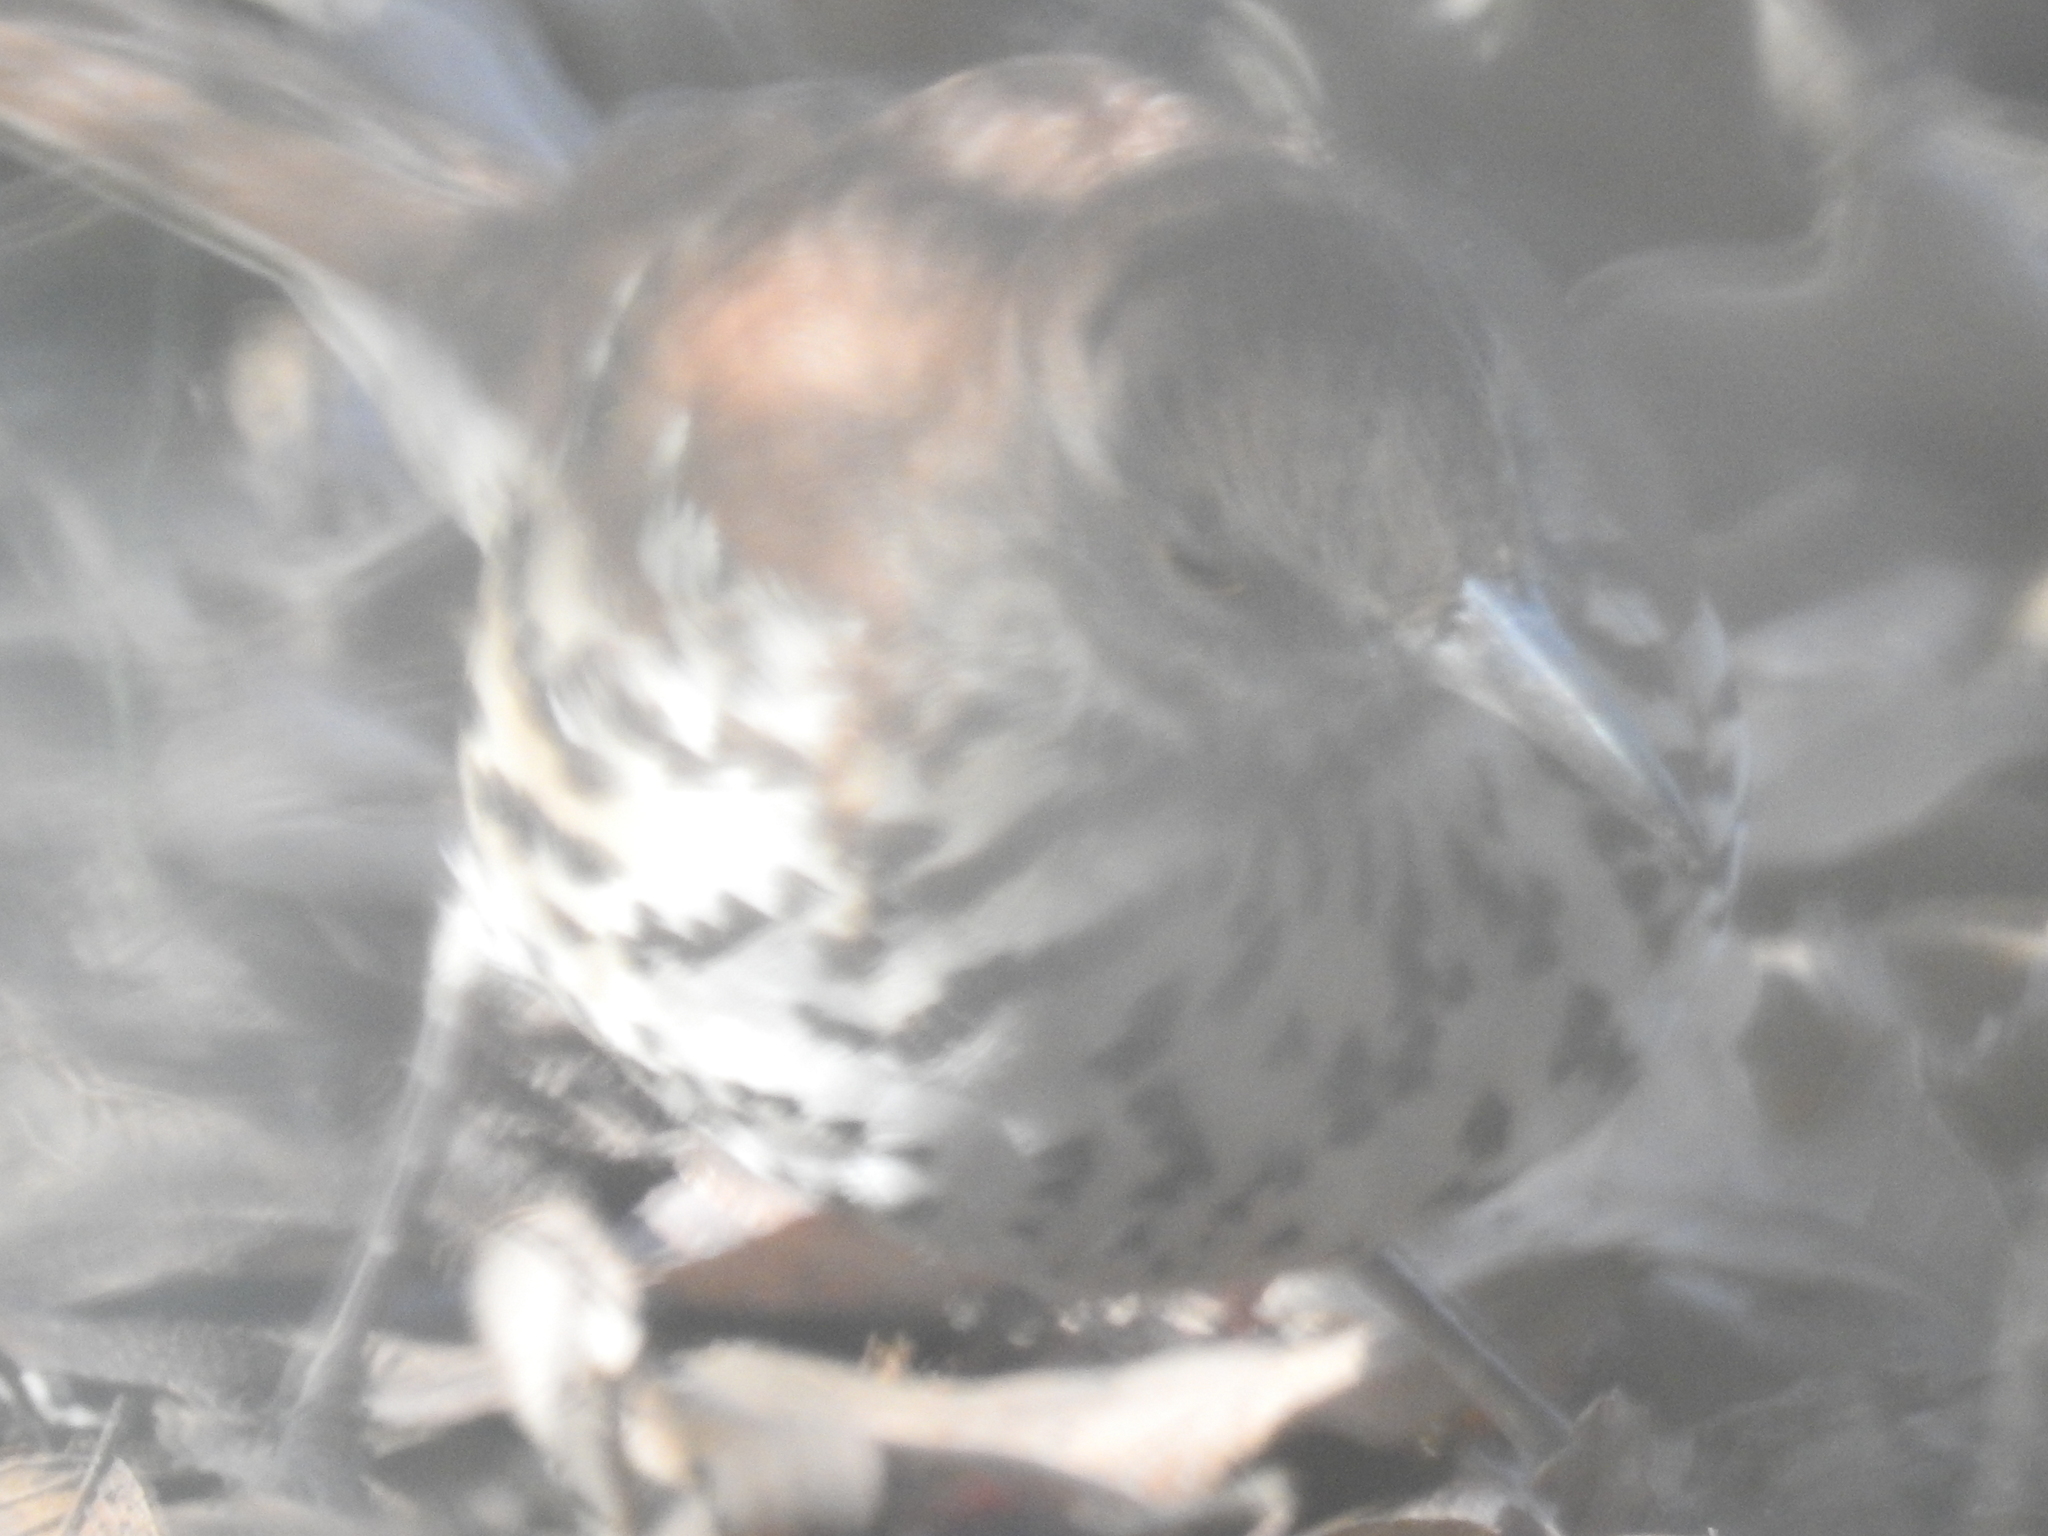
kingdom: Animalia
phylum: Chordata
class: Aves
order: Passeriformes
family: Mimidae
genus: Toxostoma
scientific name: Toxostoma rufum
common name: Brown thrasher
